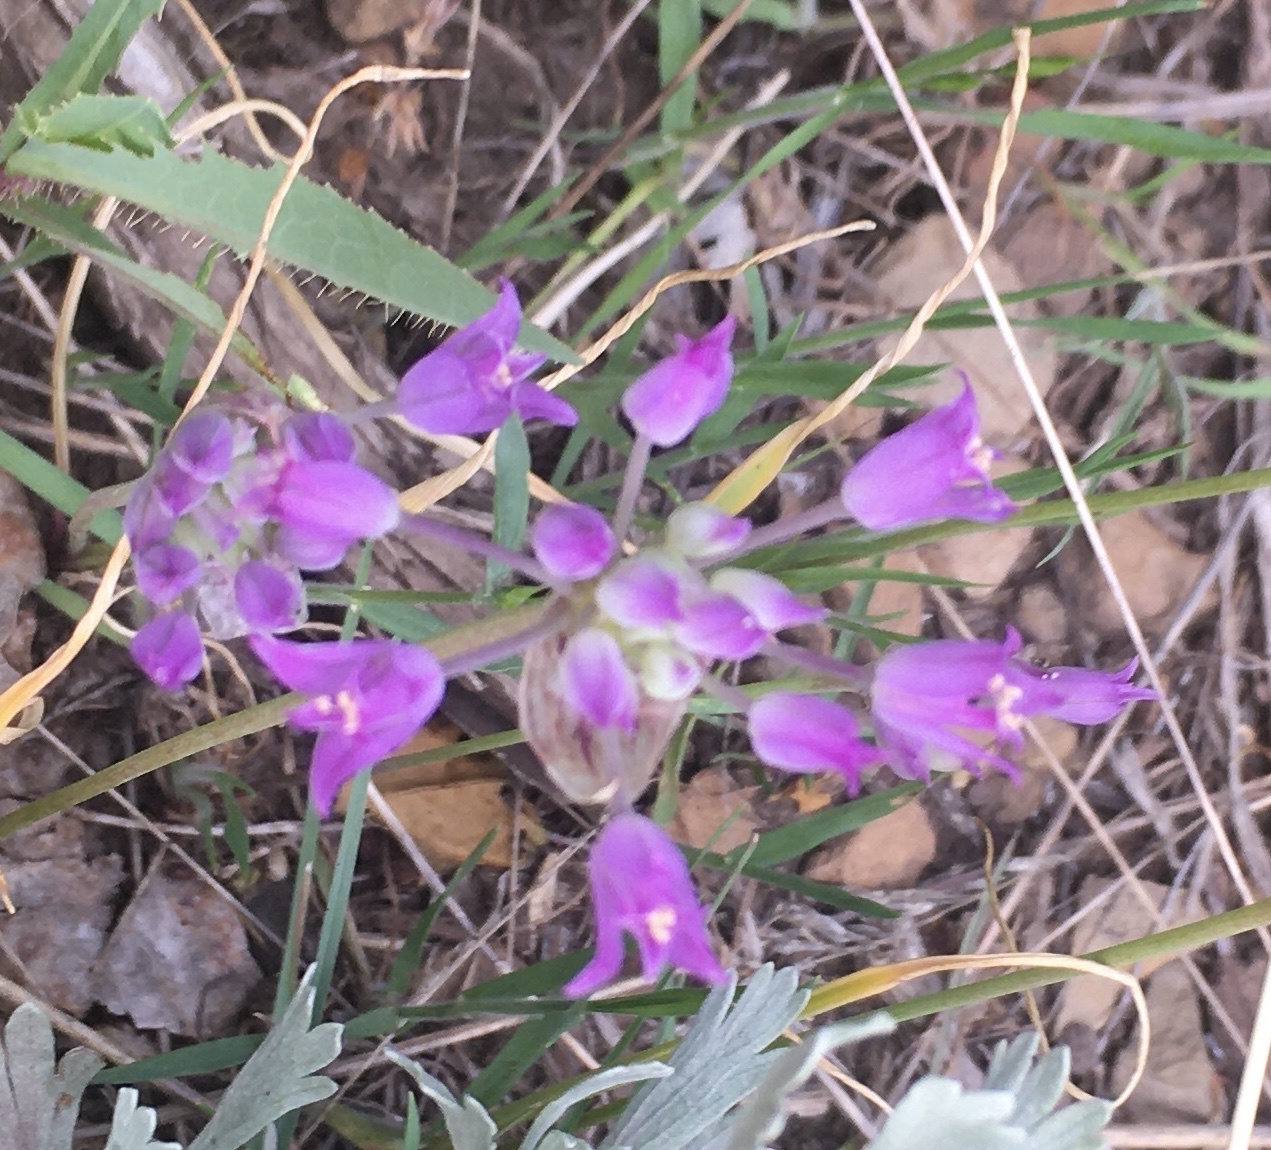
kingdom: Plantae
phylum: Tracheophyta
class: Liliopsida
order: Asparagales
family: Amaryllidaceae
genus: Allium
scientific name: Allium acuminatum
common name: Hooker's onion
